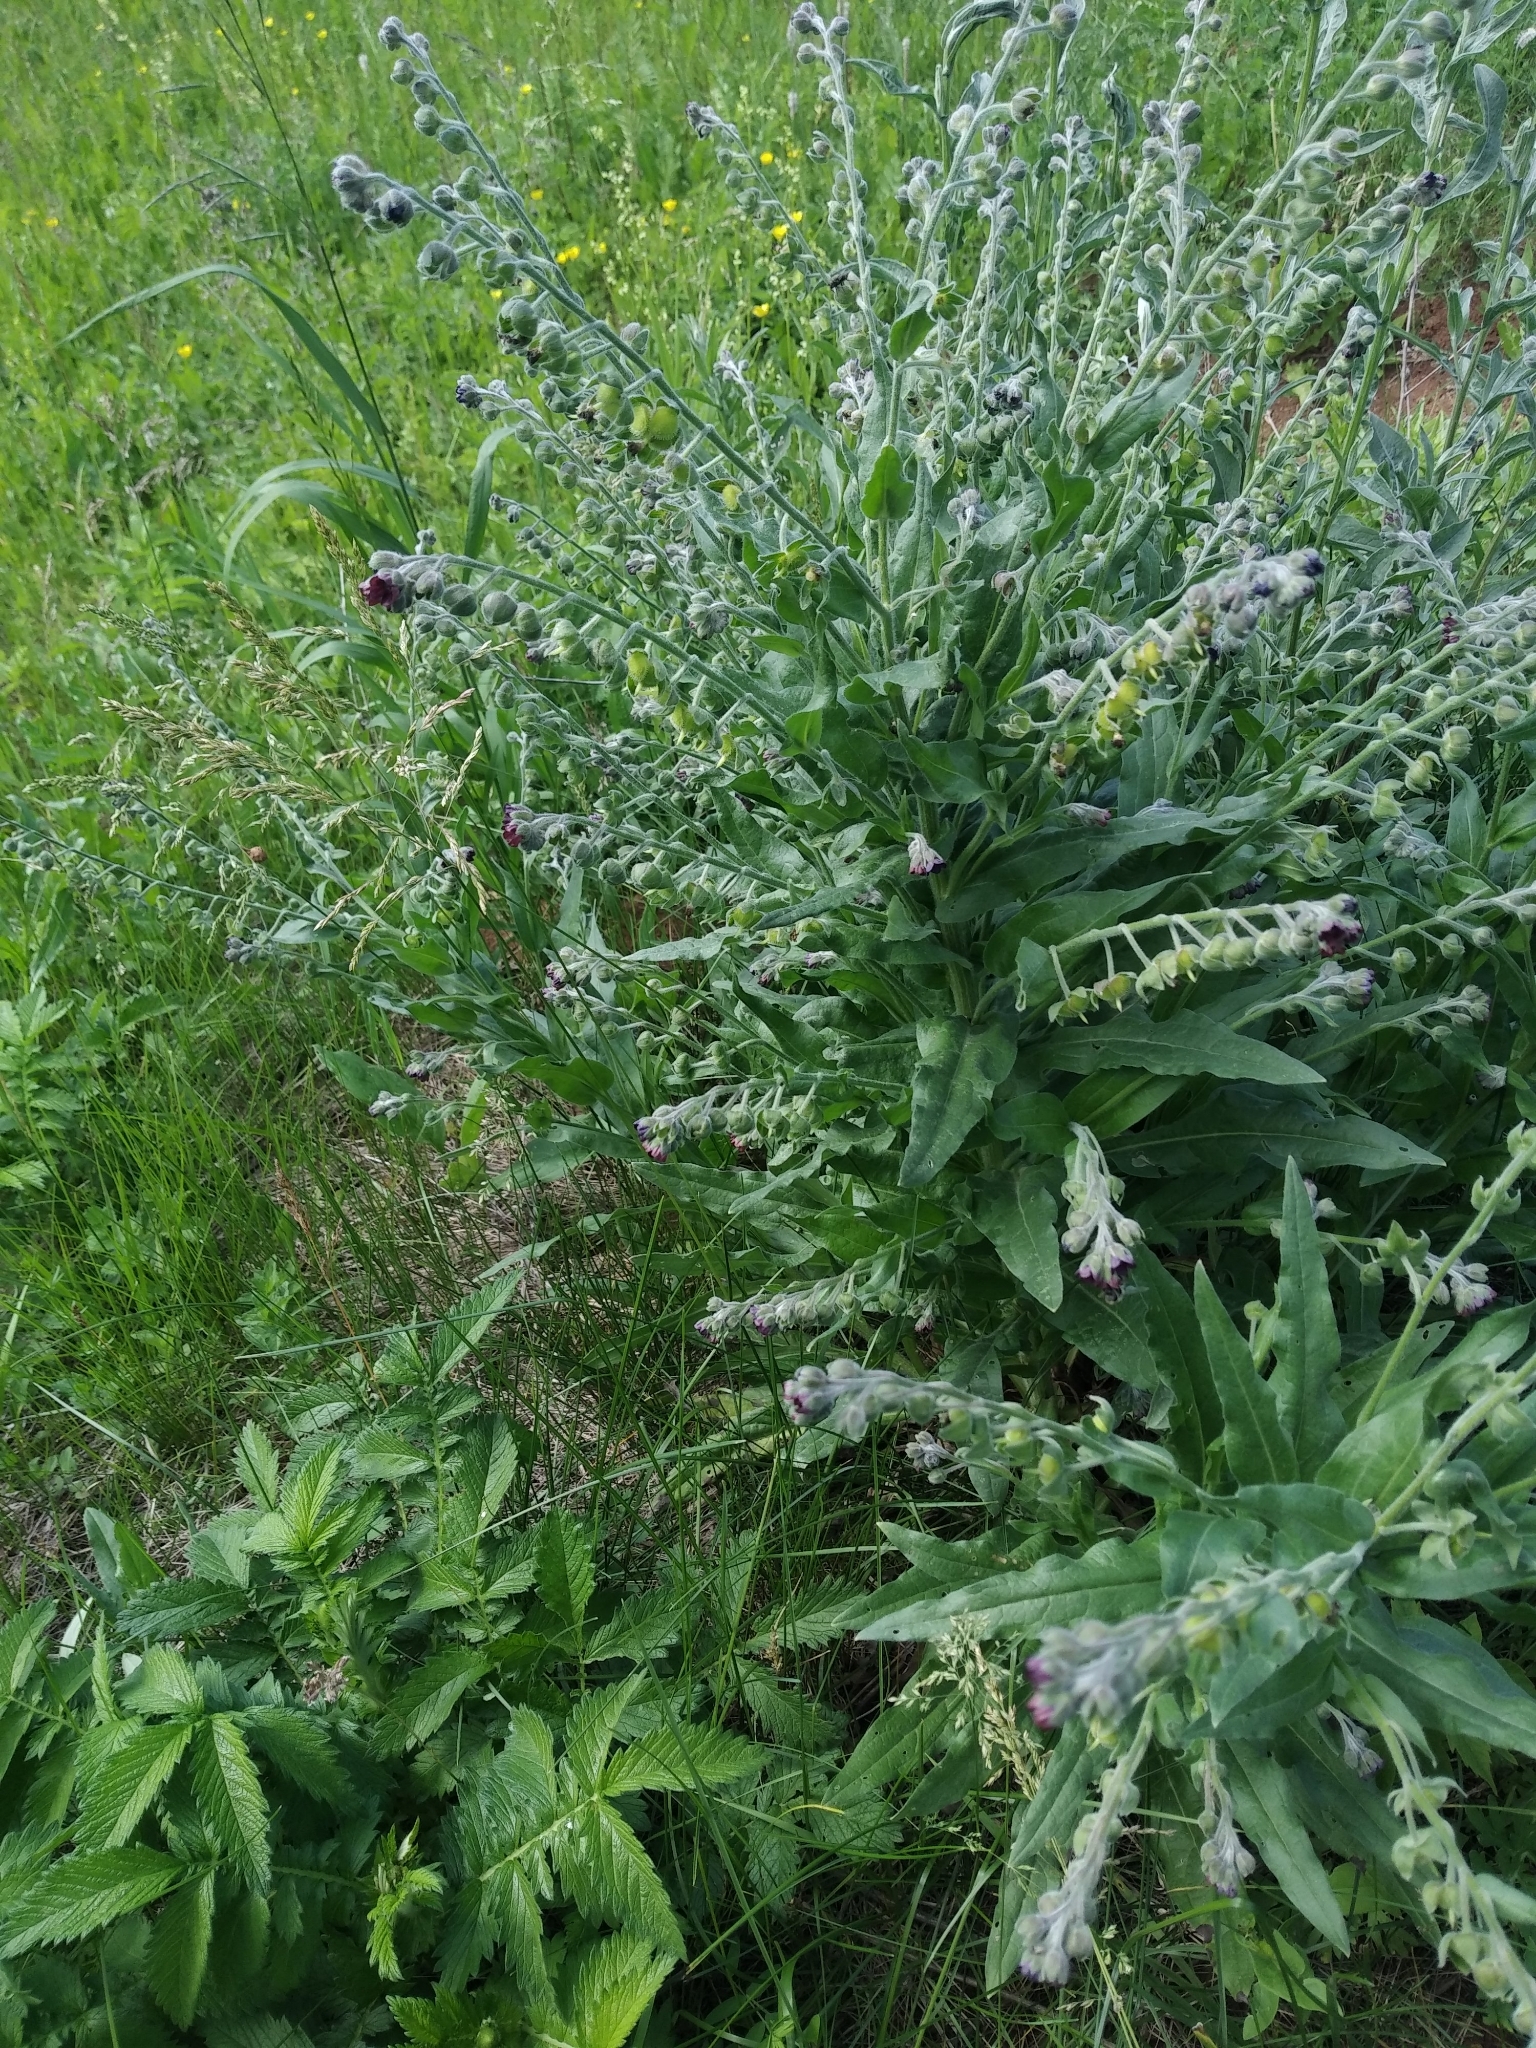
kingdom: Plantae
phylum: Tracheophyta
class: Magnoliopsida
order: Boraginales
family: Boraginaceae
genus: Cynoglossum
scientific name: Cynoglossum officinale
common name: Hound's-tongue
